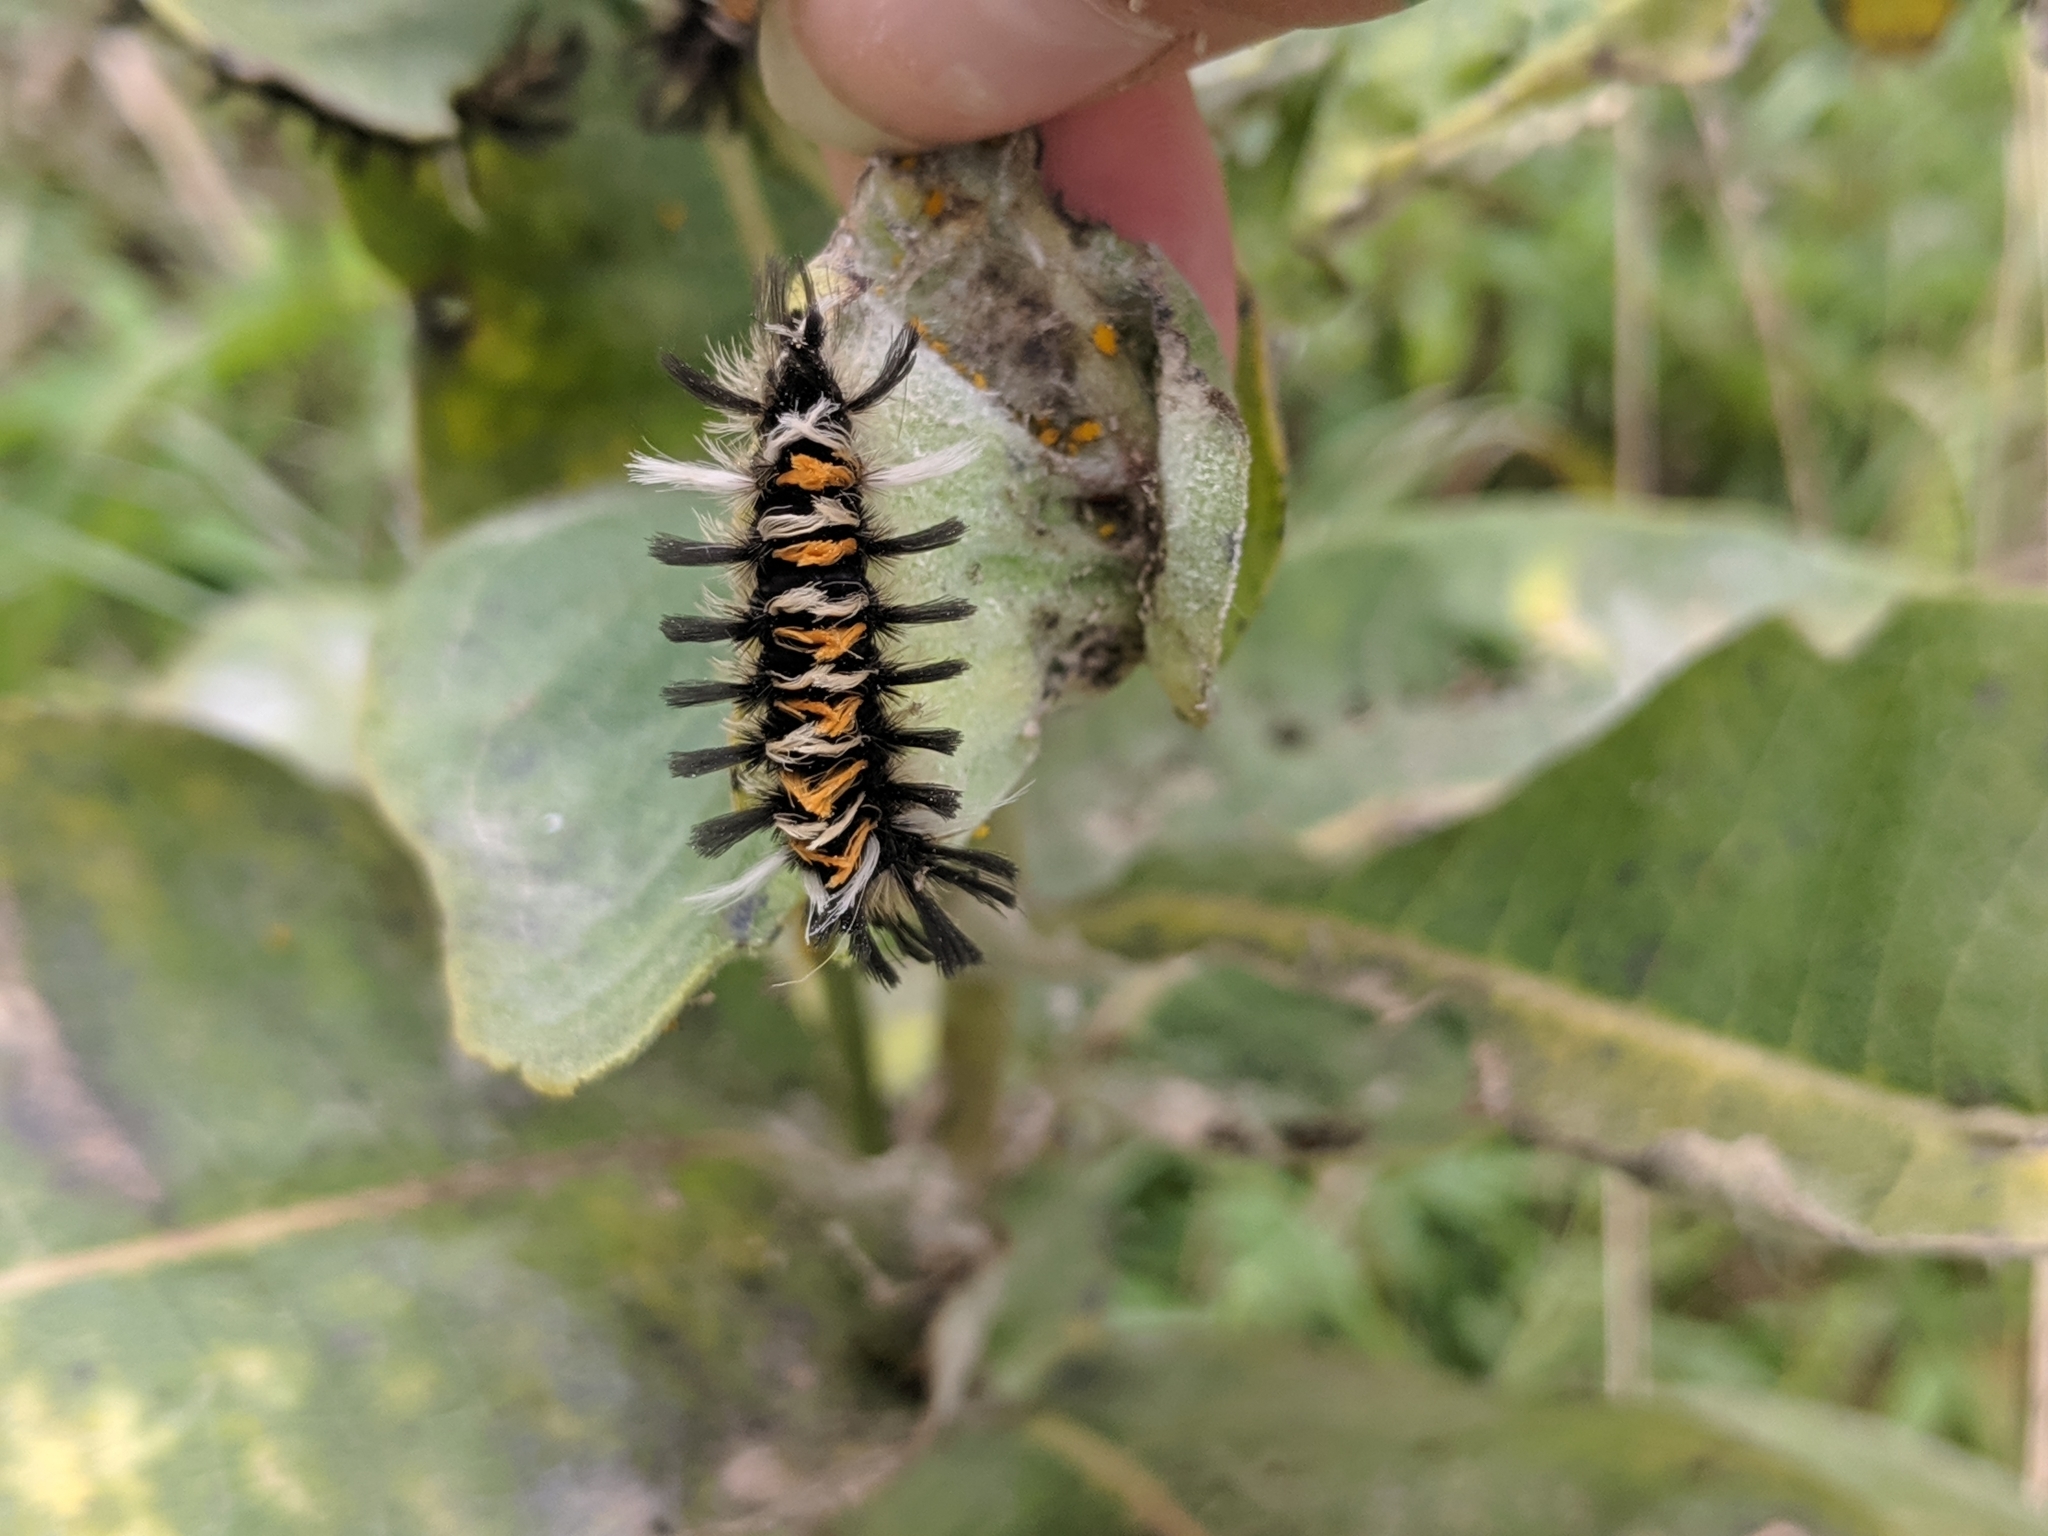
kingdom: Animalia
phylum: Arthropoda
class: Insecta
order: Lepidoptera
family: Erebidae
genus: Euchaetes
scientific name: Euchaetes egle
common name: Milkweed tussock moth
